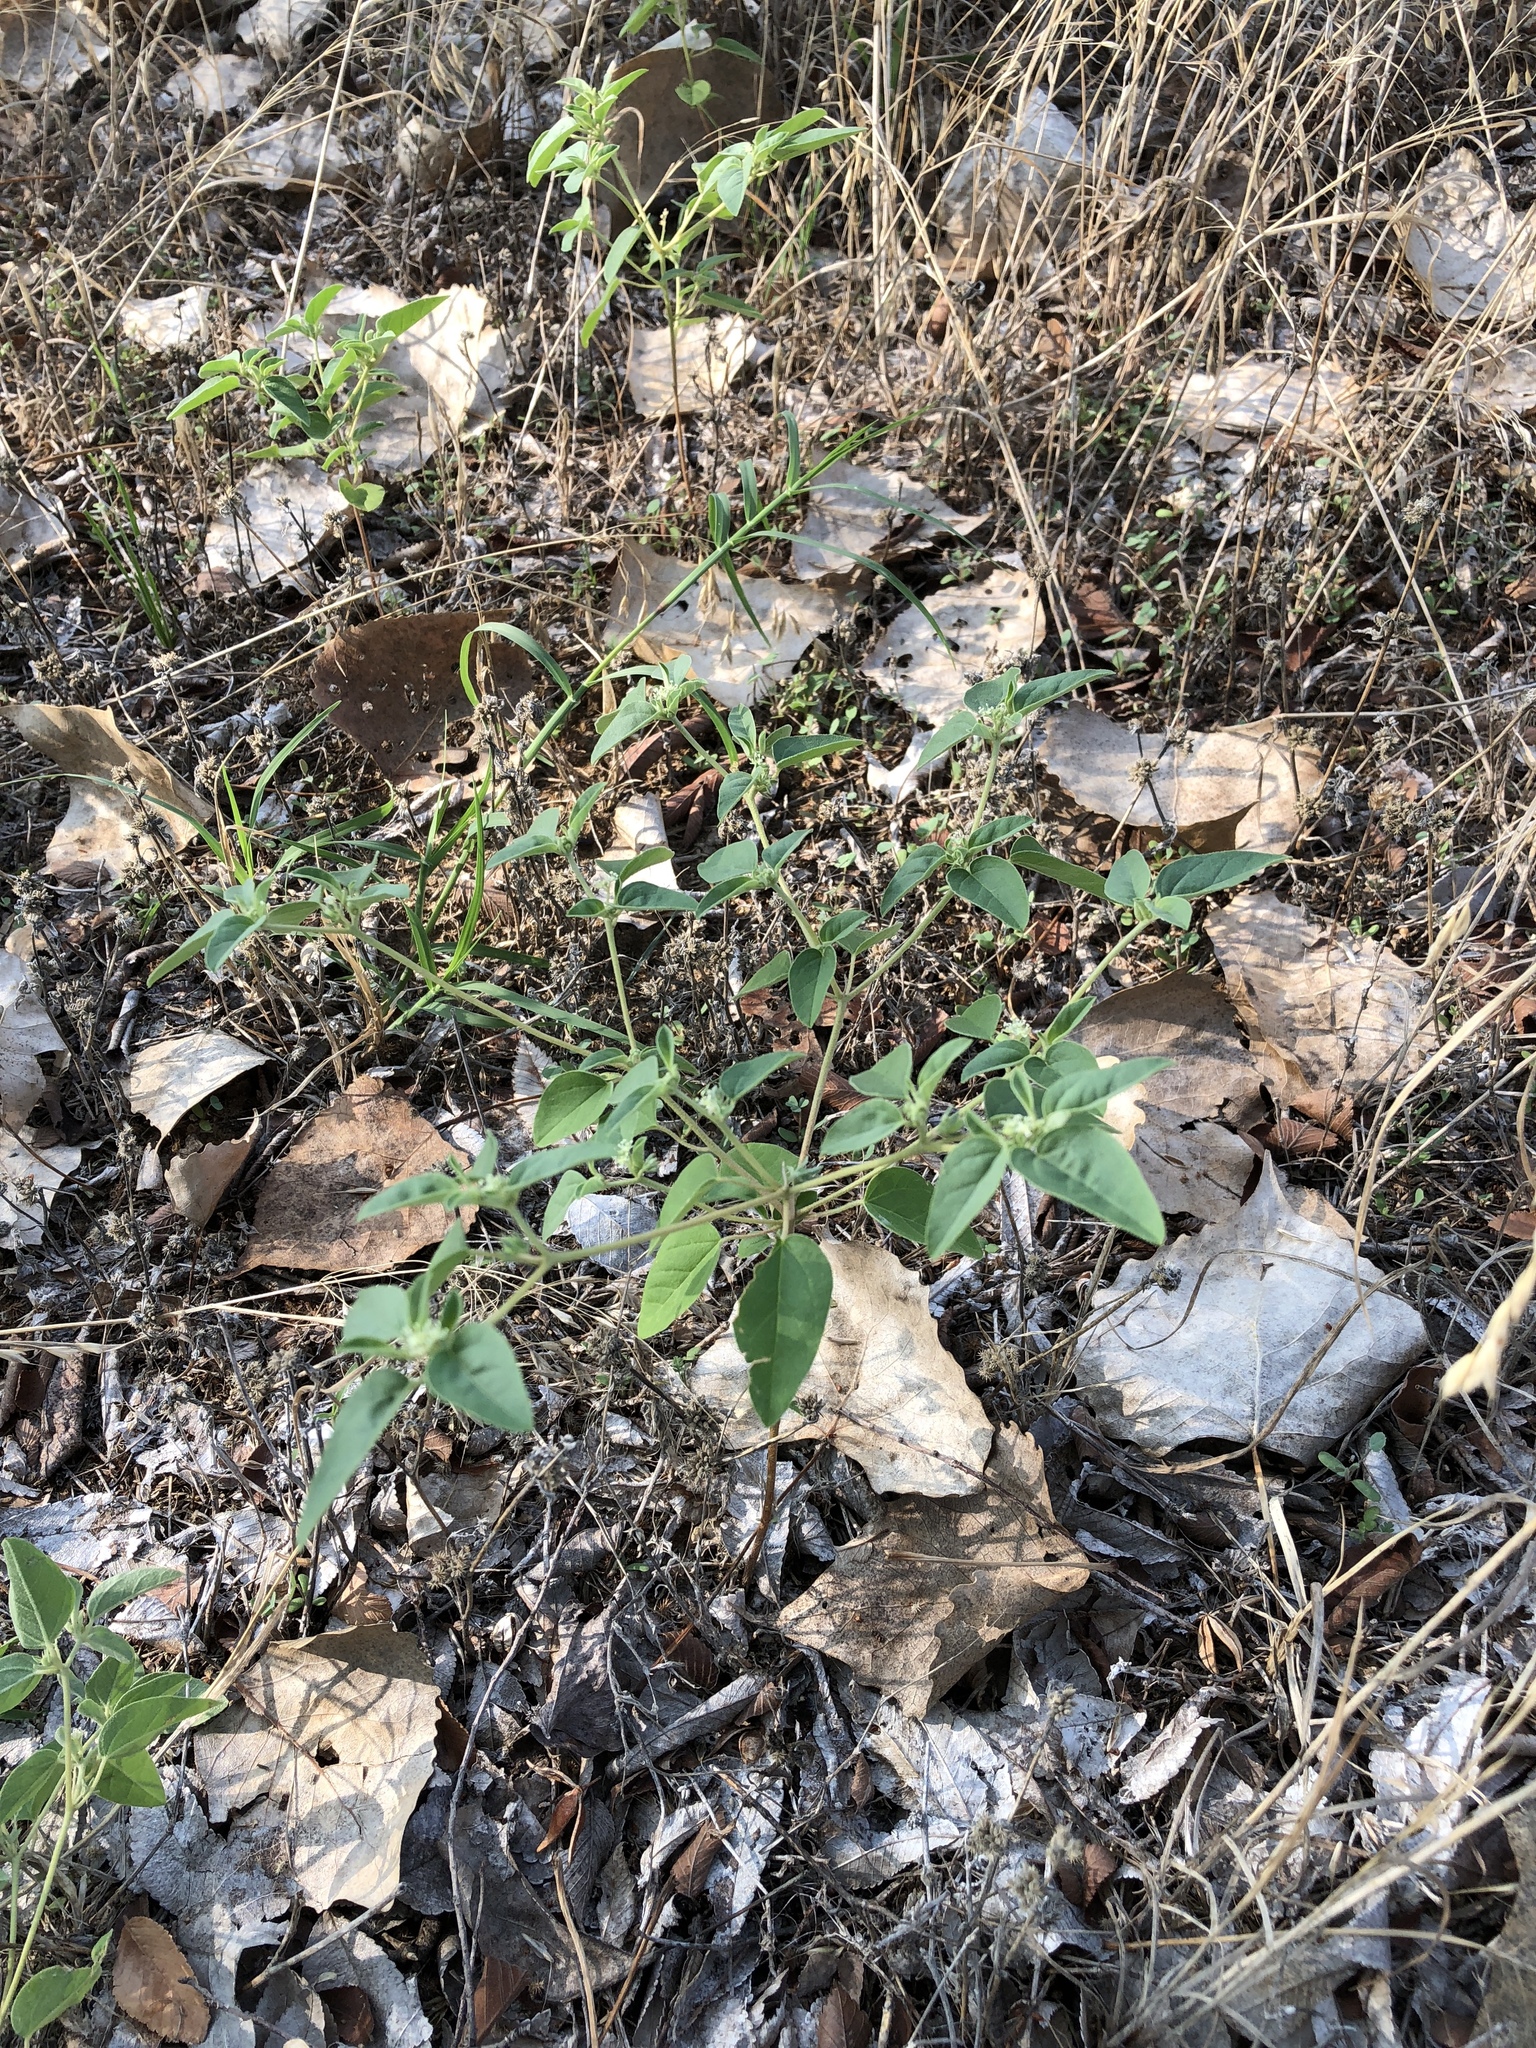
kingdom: Plantae
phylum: Tracheophyta
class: Magnoliopsida
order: Malpighiales
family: Euphorbiaceae
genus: Croton
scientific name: Croton monanthogynus
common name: One-seed croton
